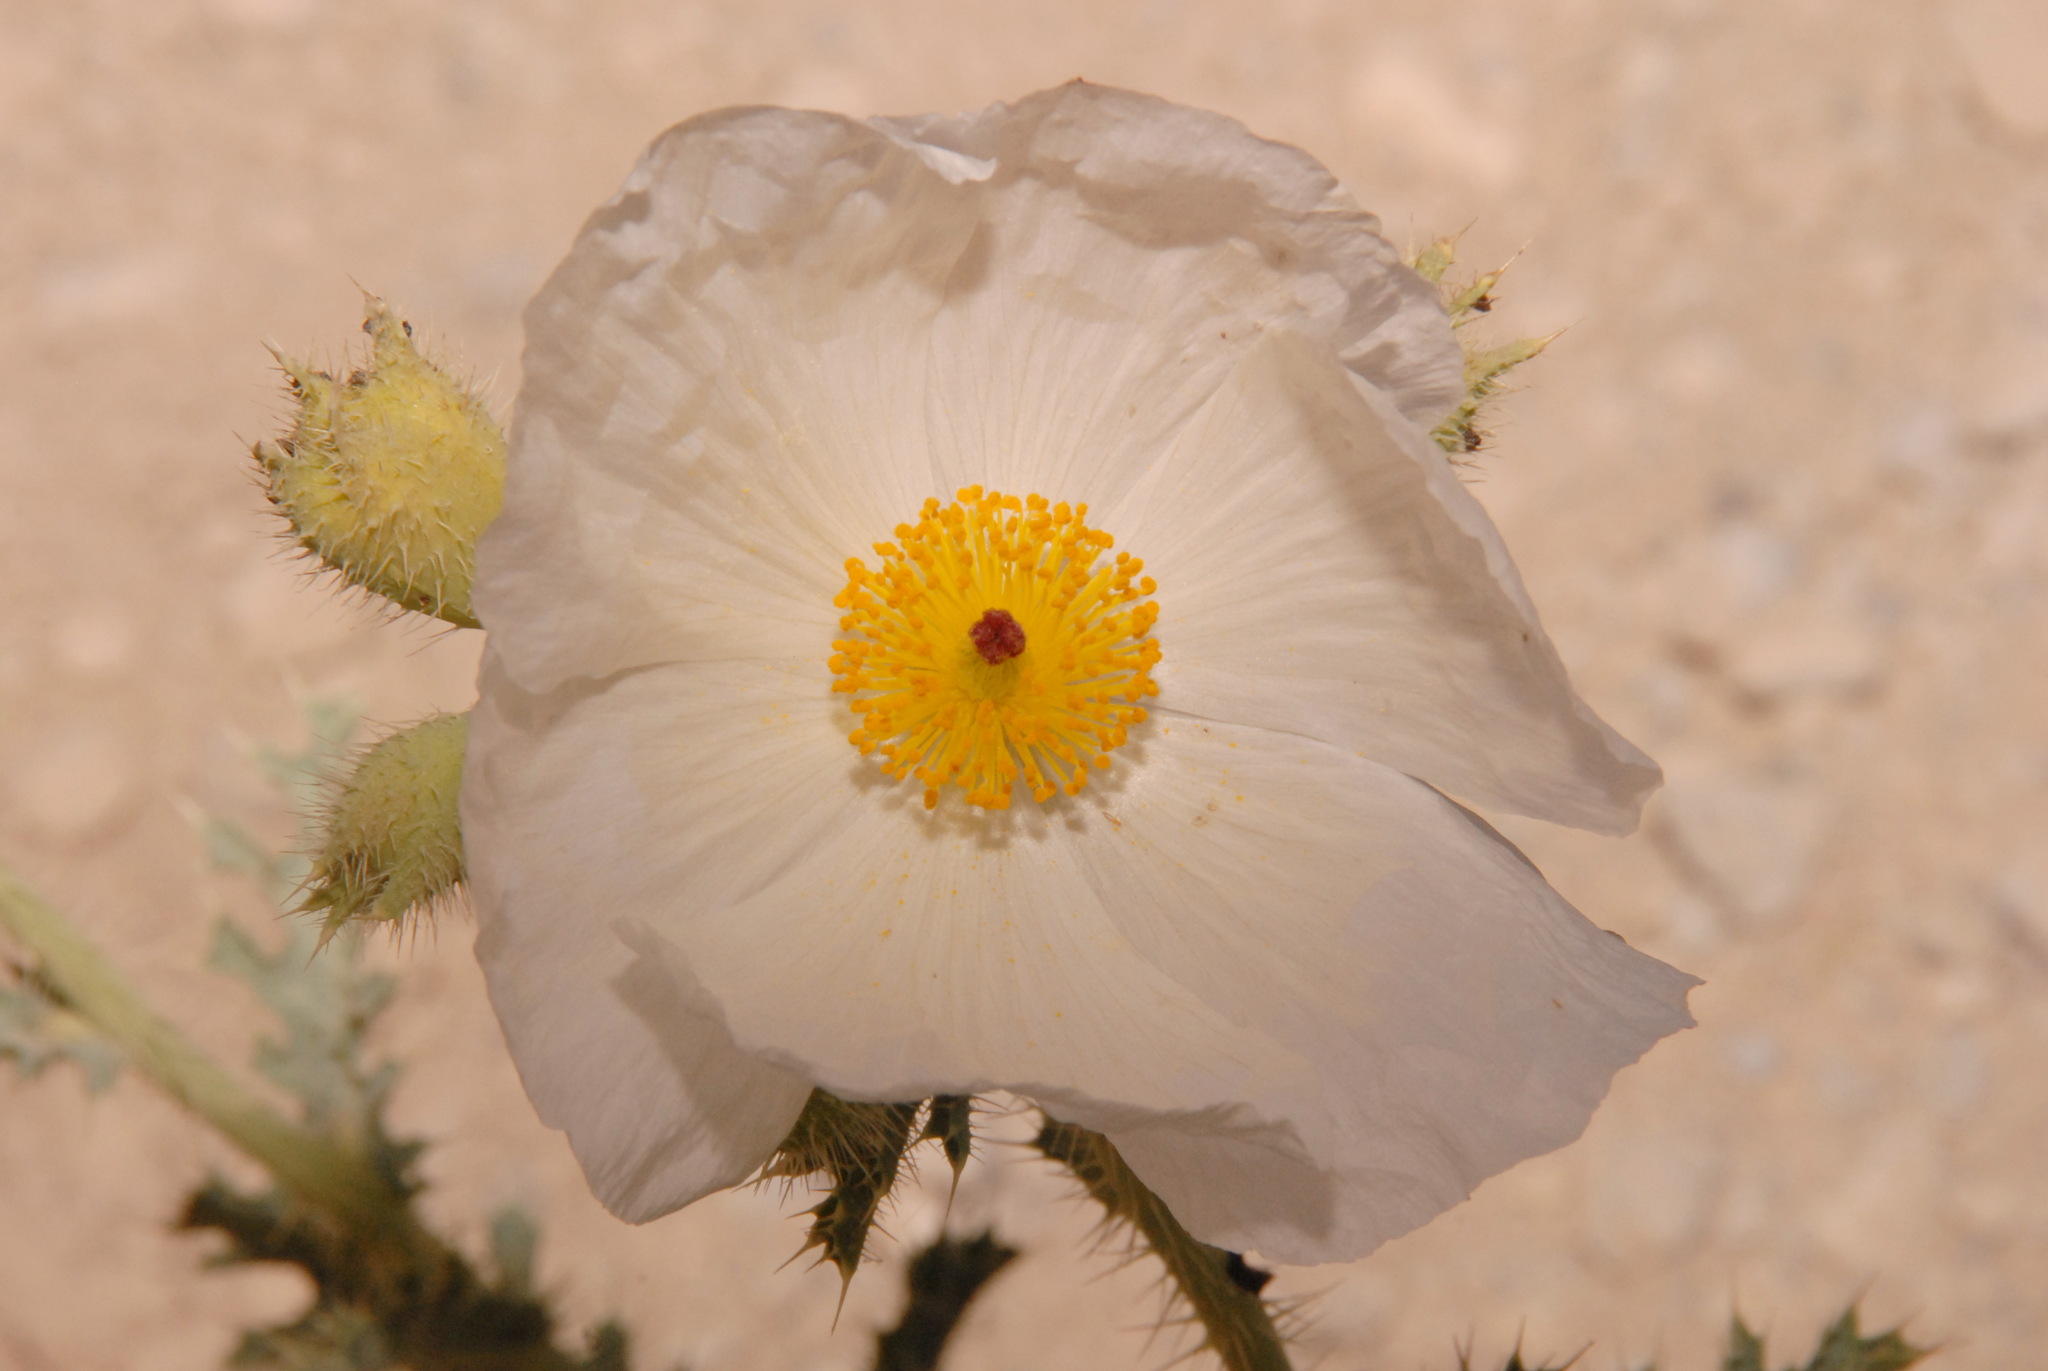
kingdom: Plantae
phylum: Tracheophyta
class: Magnoliopsida
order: Ranunculales
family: Papaveraceae
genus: Argemone
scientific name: Argemone munita
